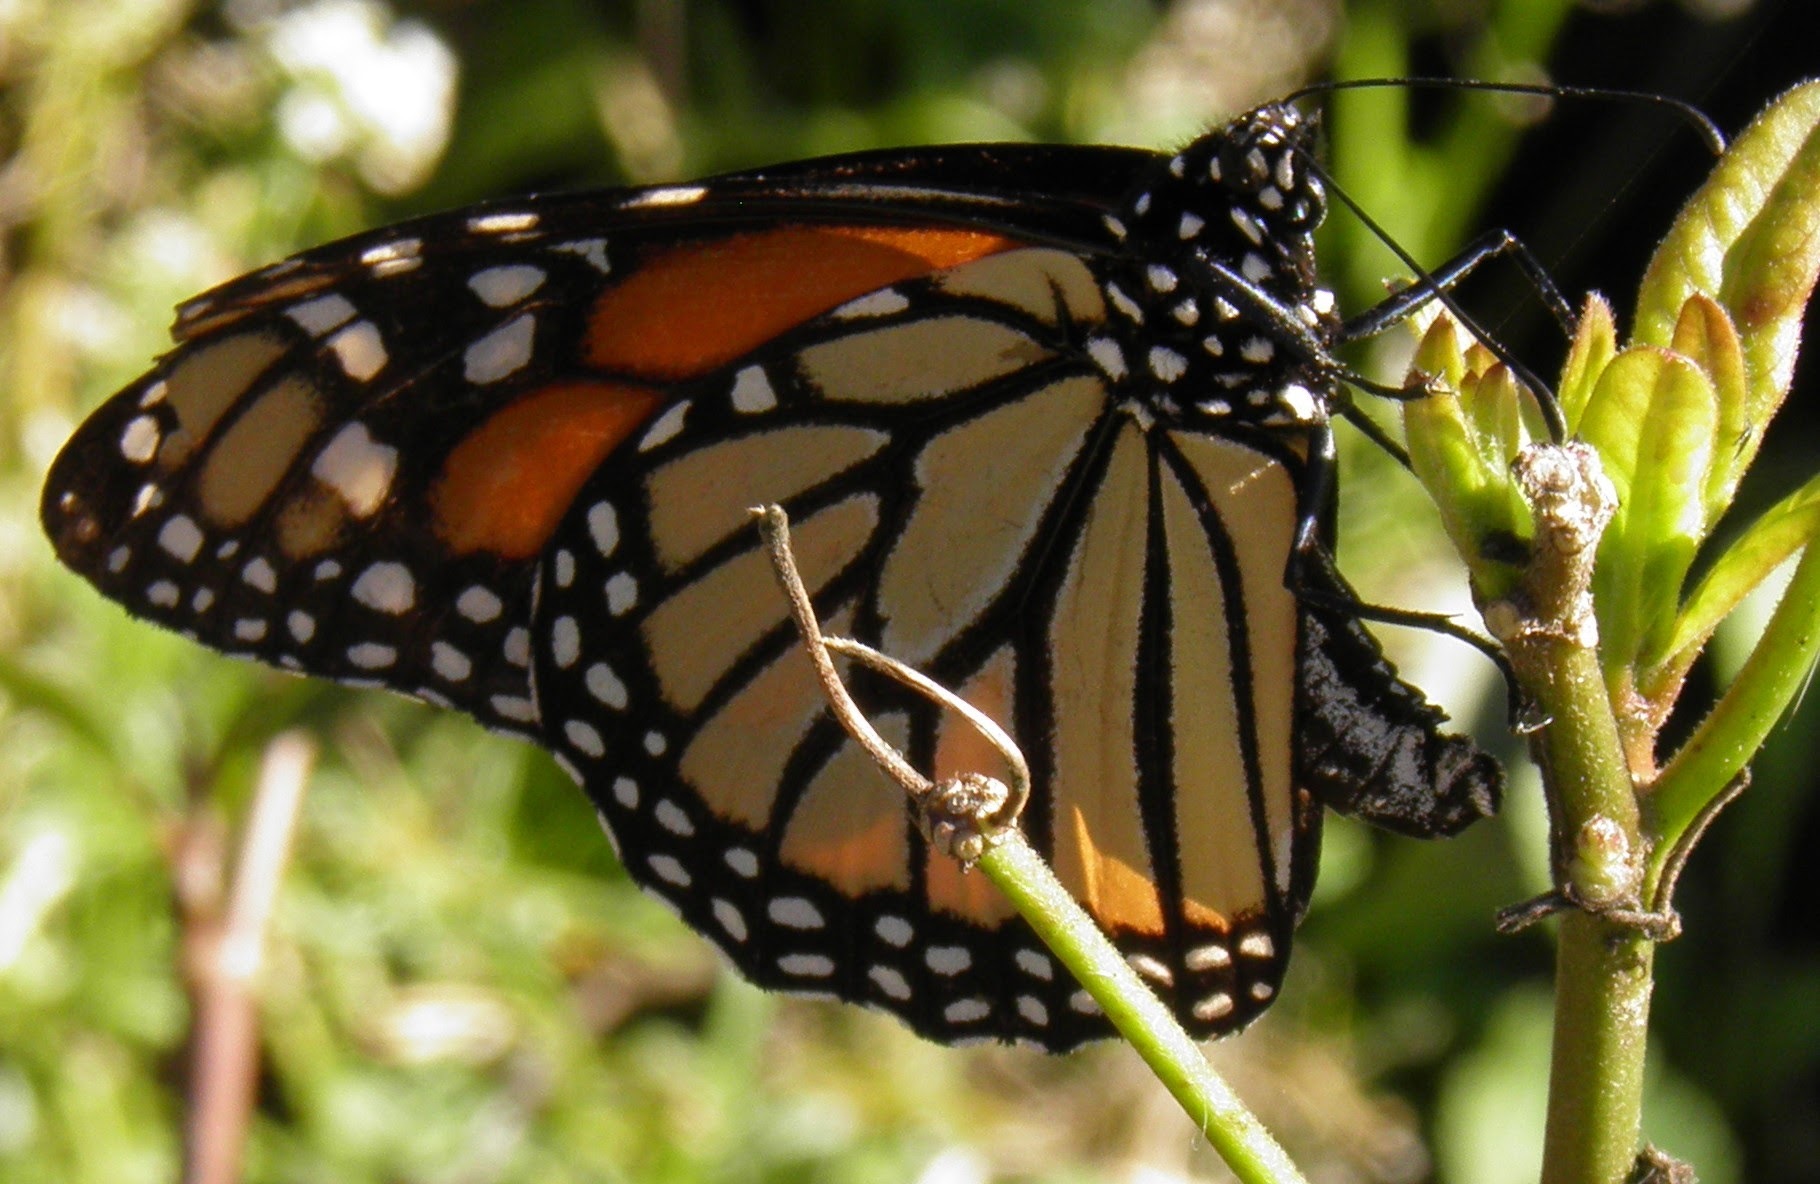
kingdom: Animalia
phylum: Arthropoda
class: Insecta
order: Lepidoptera
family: Nymphalidae
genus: Danaus
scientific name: Danaus plexippus
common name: Monarch
